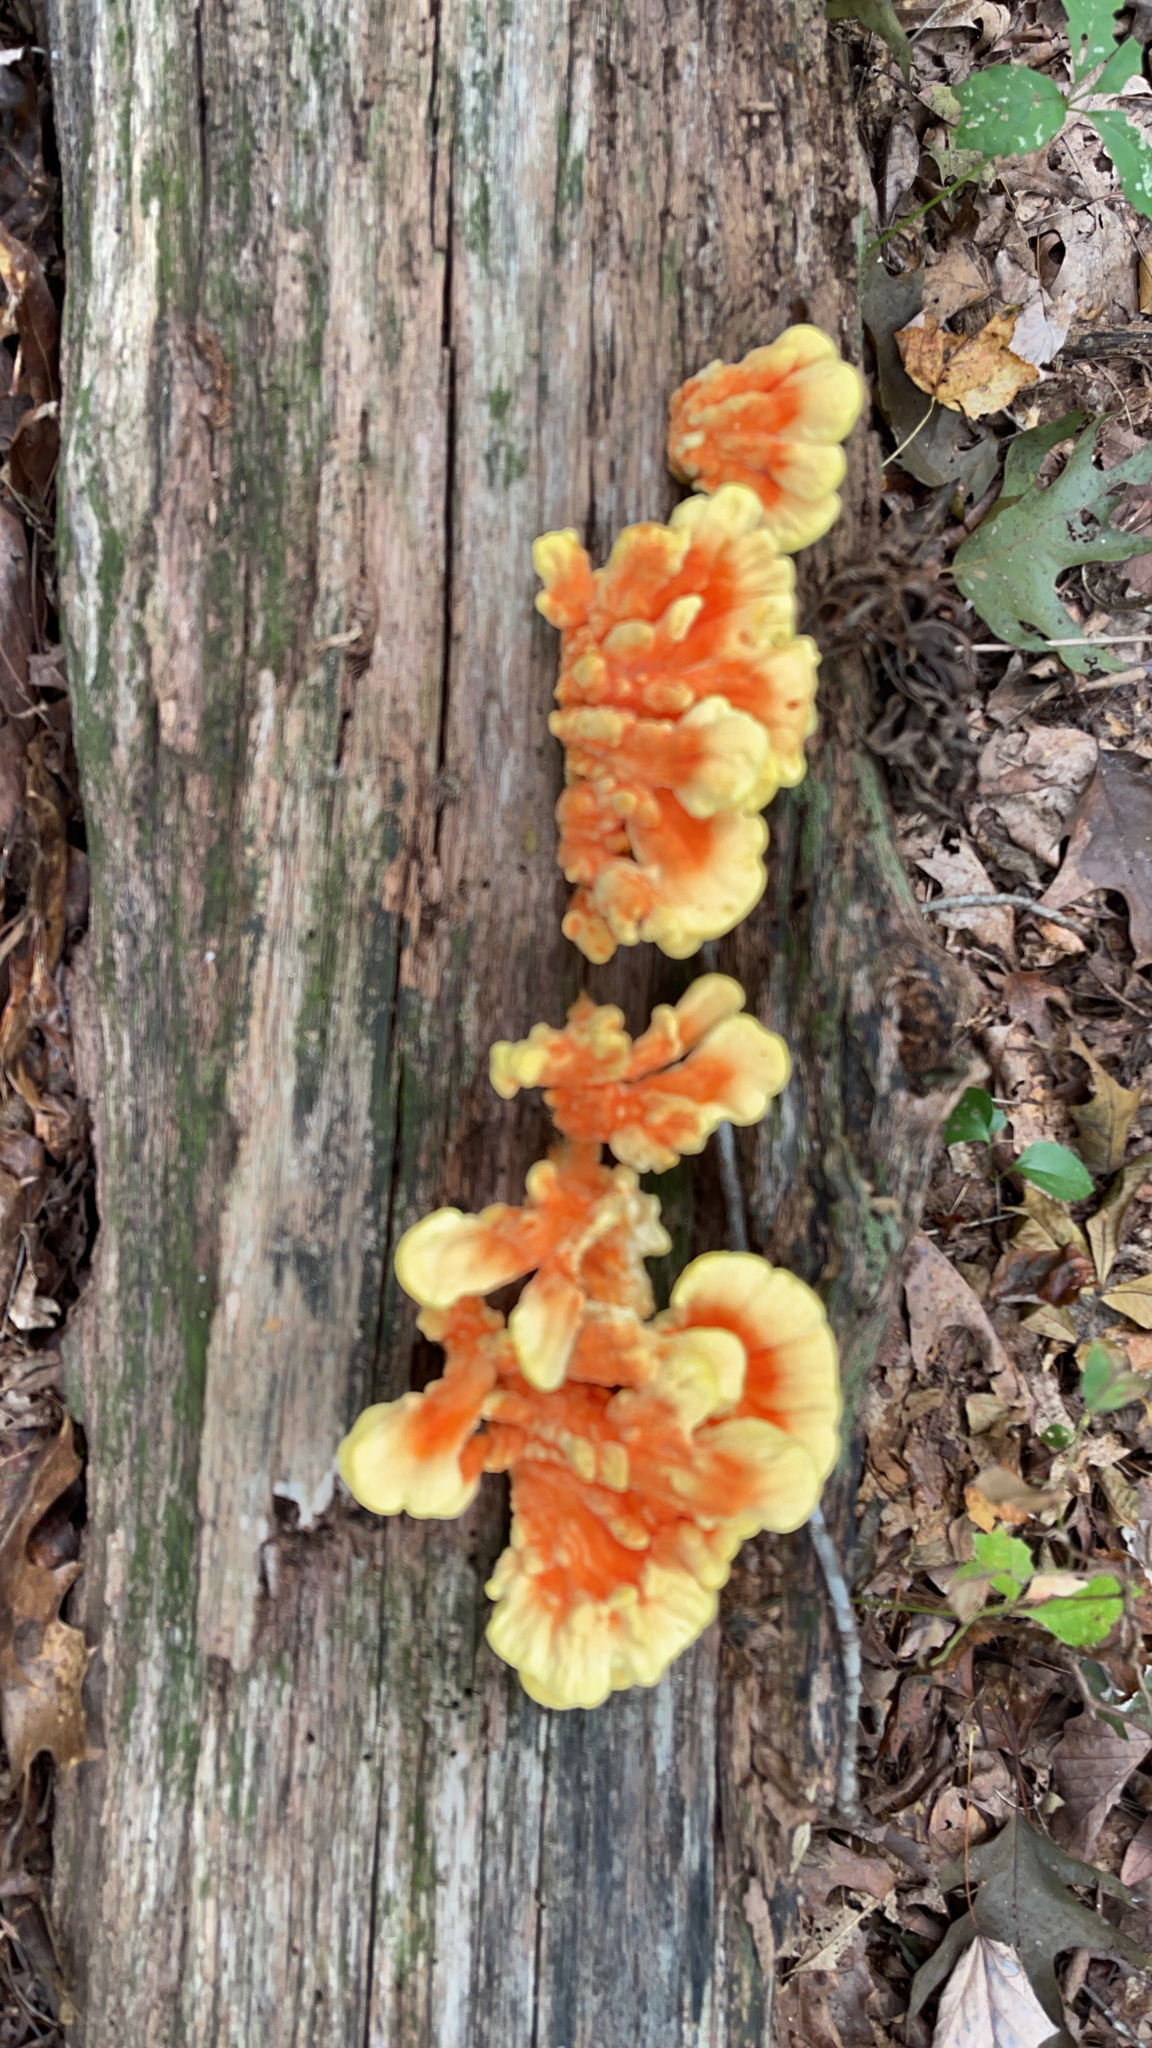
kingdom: Fungi
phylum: Basidiomycota
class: Agaricomycetes
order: Polyporales
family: Laetiporaceae
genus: Laetiporus
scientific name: Laetiporus sulphureus
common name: Chicken of the woods
